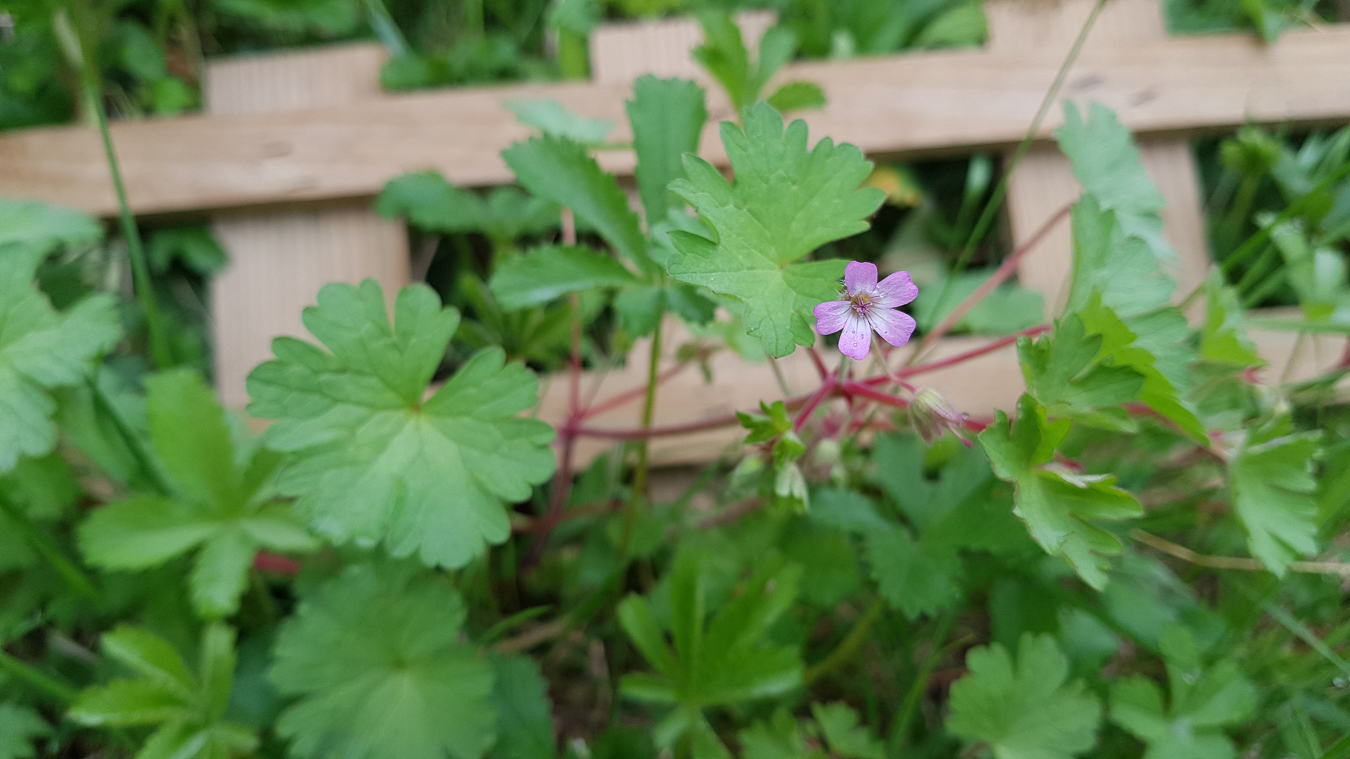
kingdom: Plantae
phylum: Tracheophyta
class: Magnoliopsida
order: Geraniales
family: Geraniaceae
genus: Geranium
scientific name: Geranium rotundifolium
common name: Round-leaved crane's-bill
